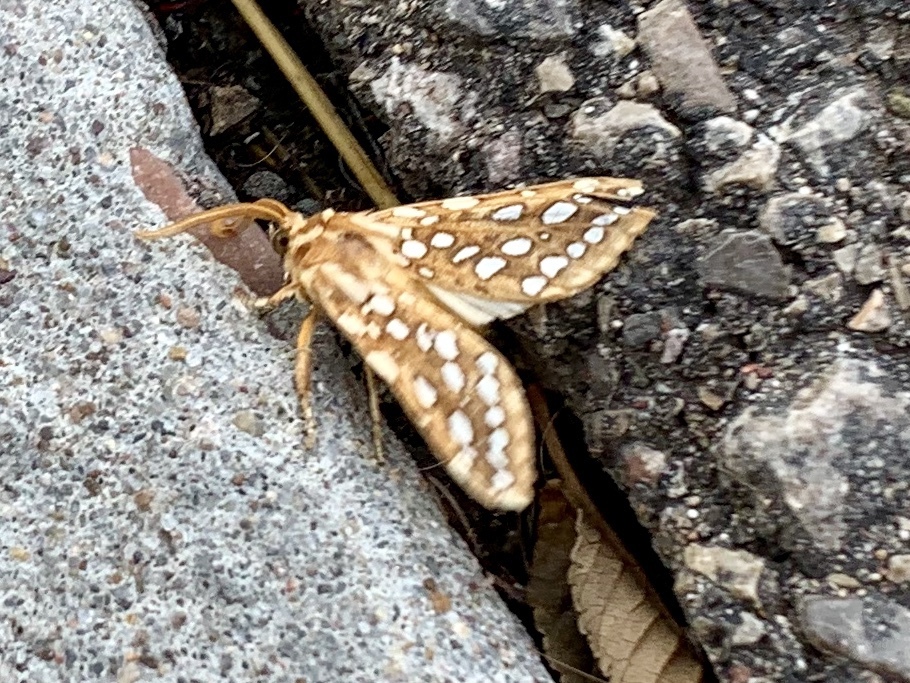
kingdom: Animalia
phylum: Arthropoda
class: Insecta
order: Lepidoptera
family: Erebidae
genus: Lophocampa
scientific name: Lophocampa argentata
